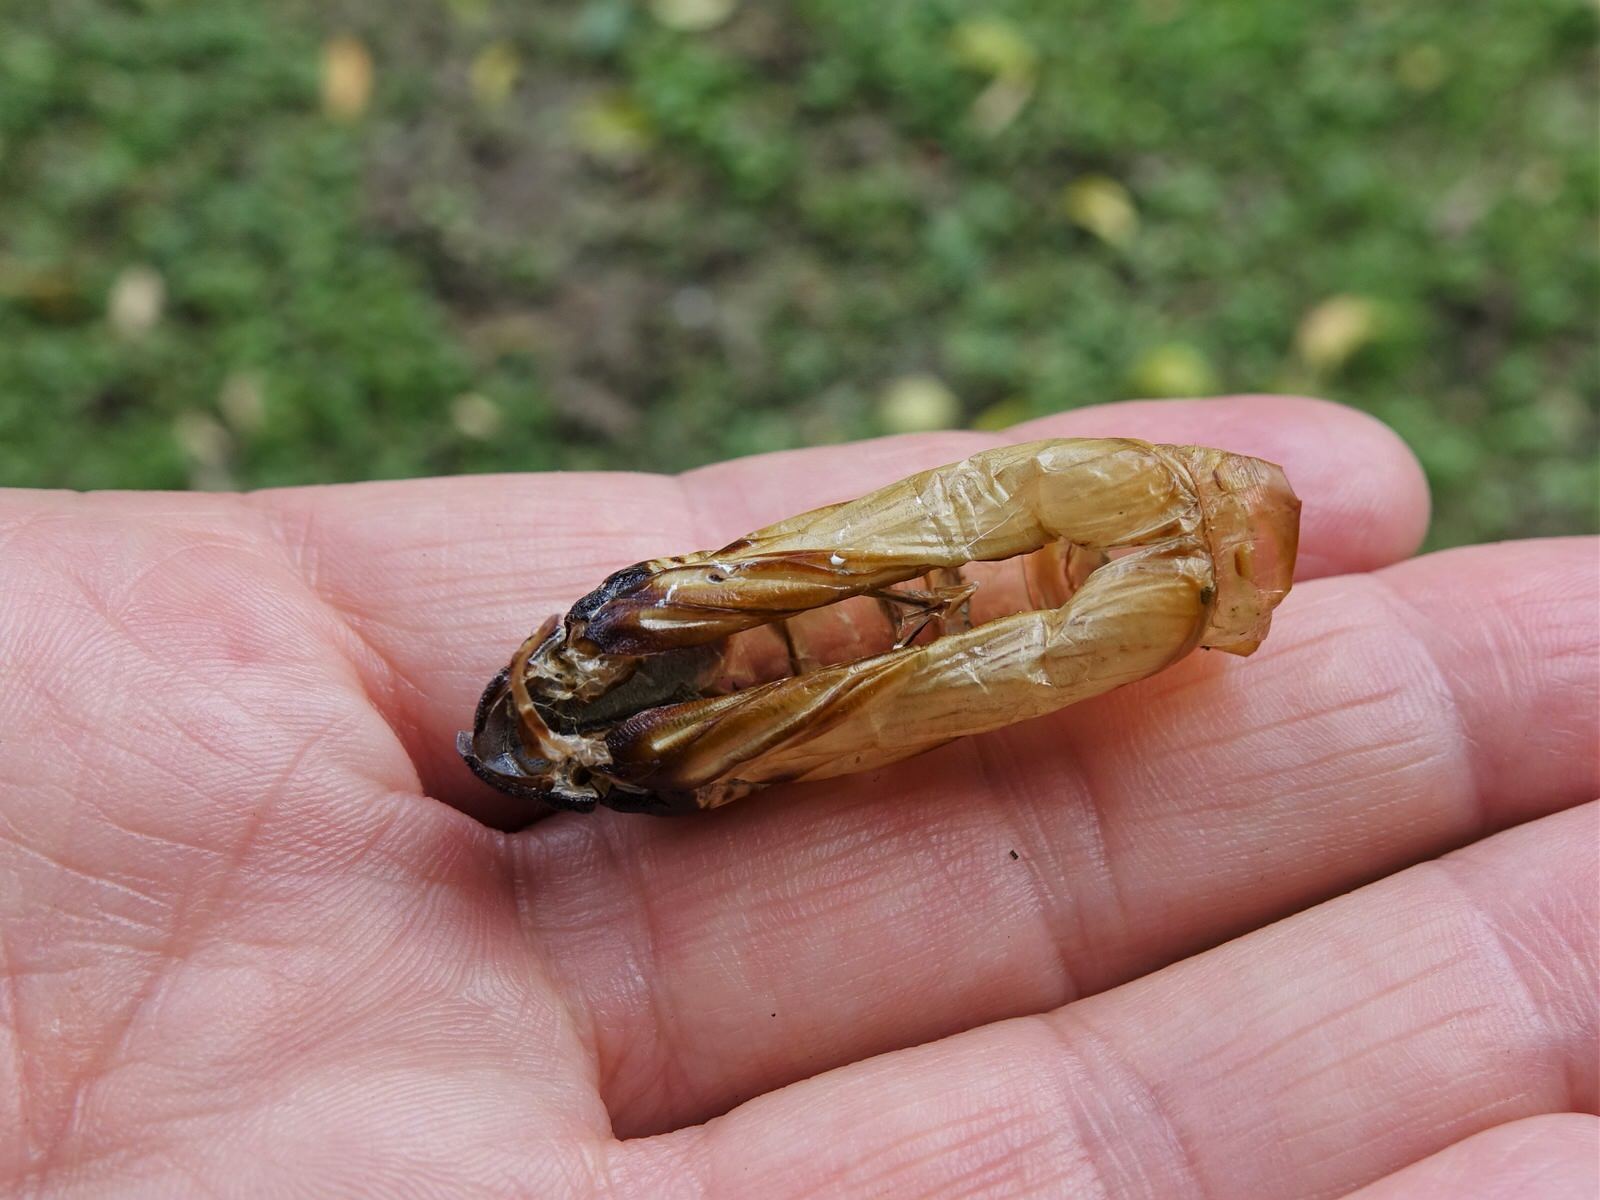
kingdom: Animalia
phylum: Arthropoda
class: Insecta
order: Lepidoptera
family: Hepialidae
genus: Aenetus
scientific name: Aenetus virescens
